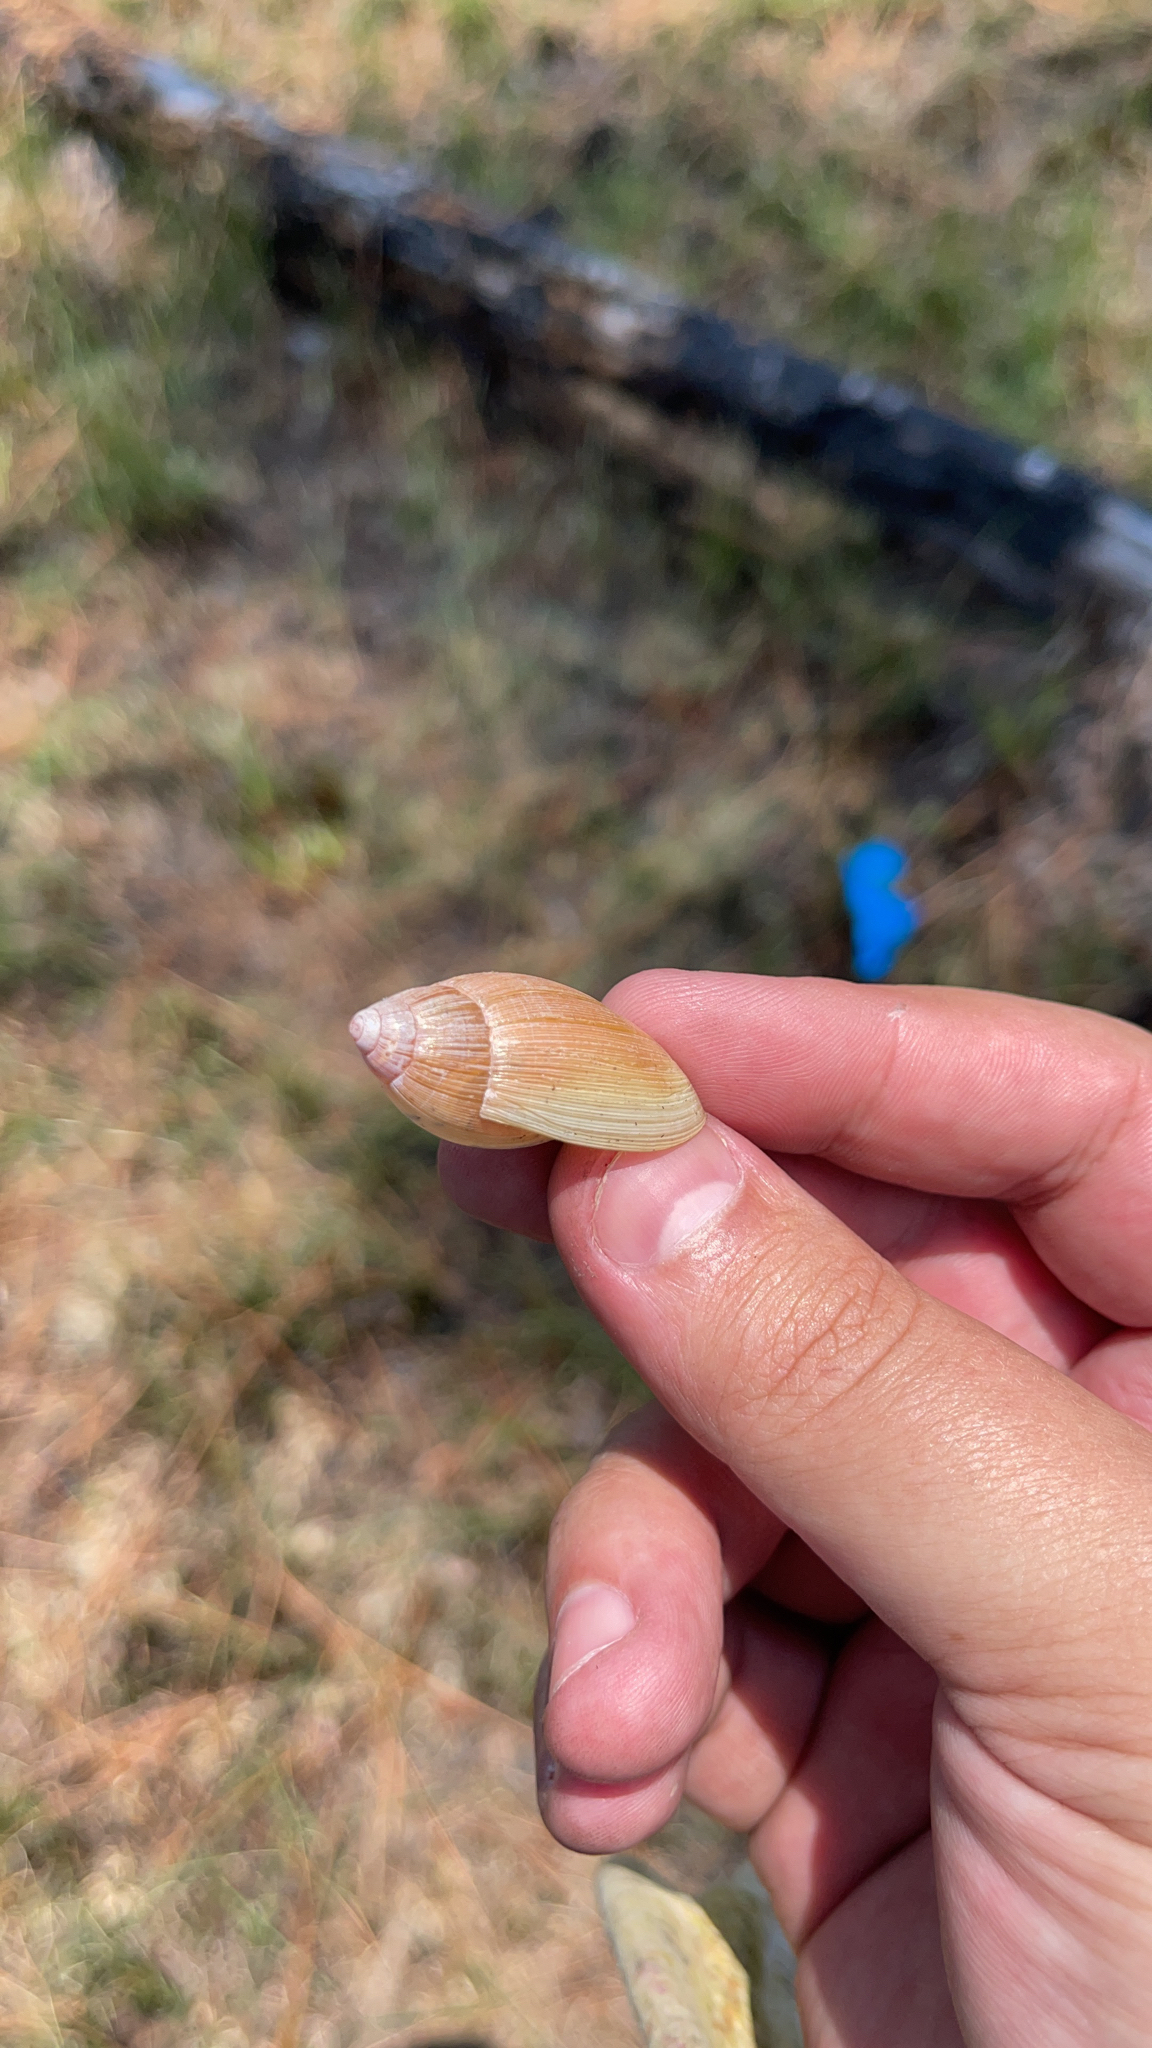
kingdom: Animalia
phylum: Mollusca
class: Gastropoda
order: Stylommatophora
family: Spiraxidae
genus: Euglandina
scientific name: Euglandina rosea
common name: Rosy wolfsnail
